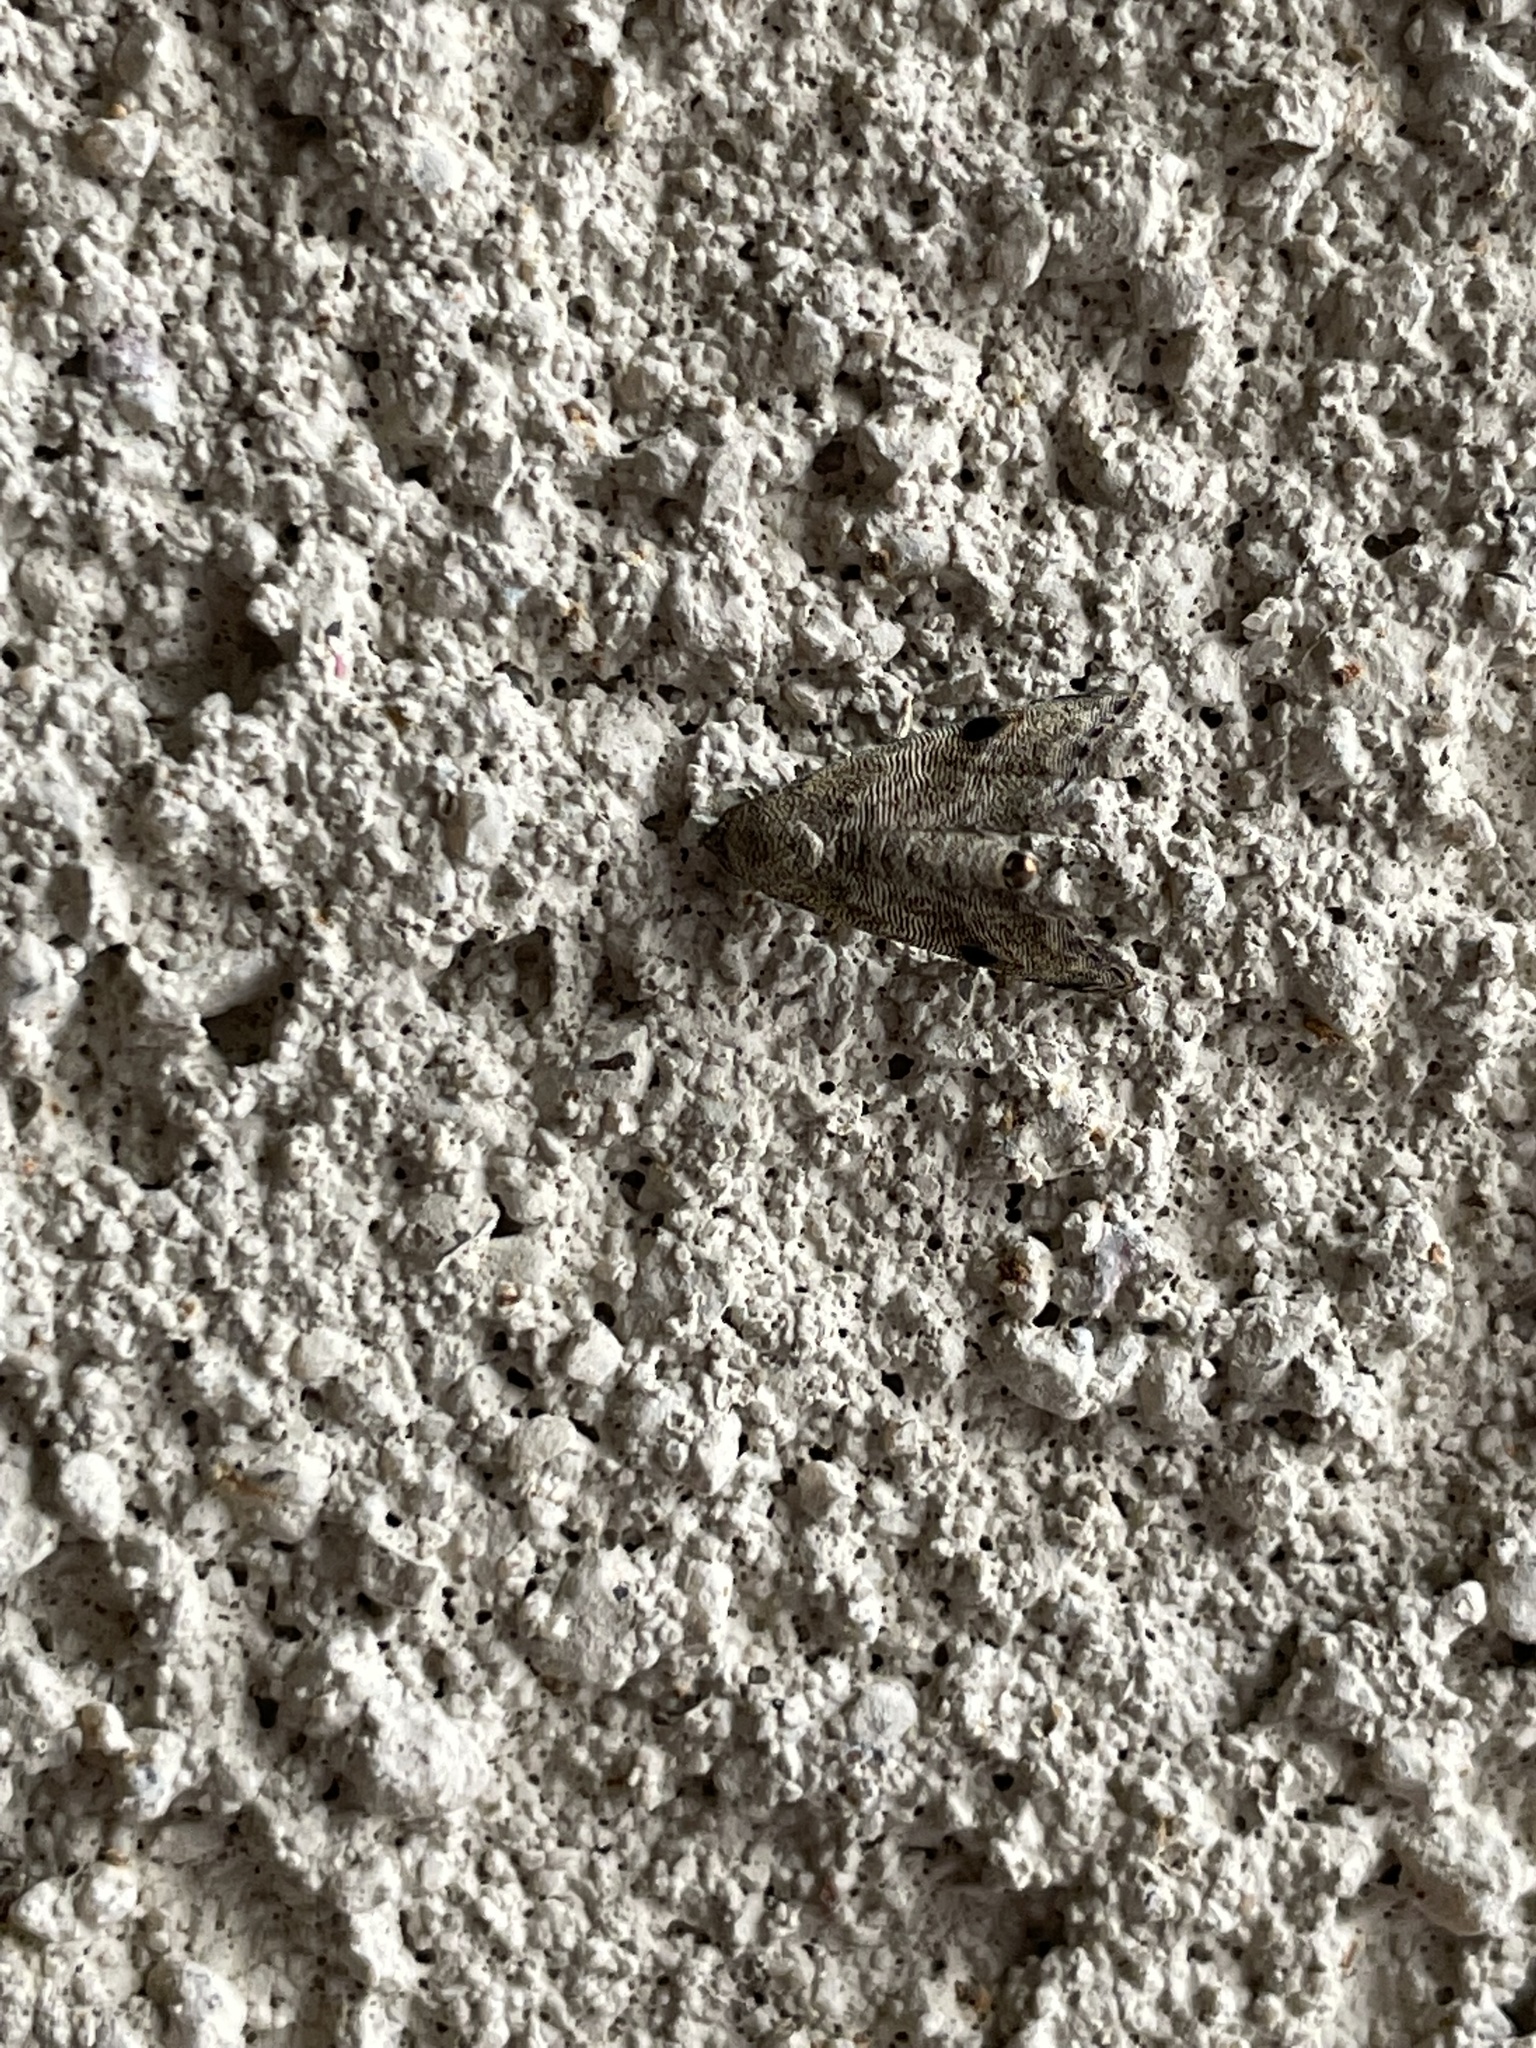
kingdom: Animalia
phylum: Arthropoda
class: Insecta
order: Lepidoptera
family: Noctuidae
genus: Abablemma
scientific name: Abablemma brimleyana
